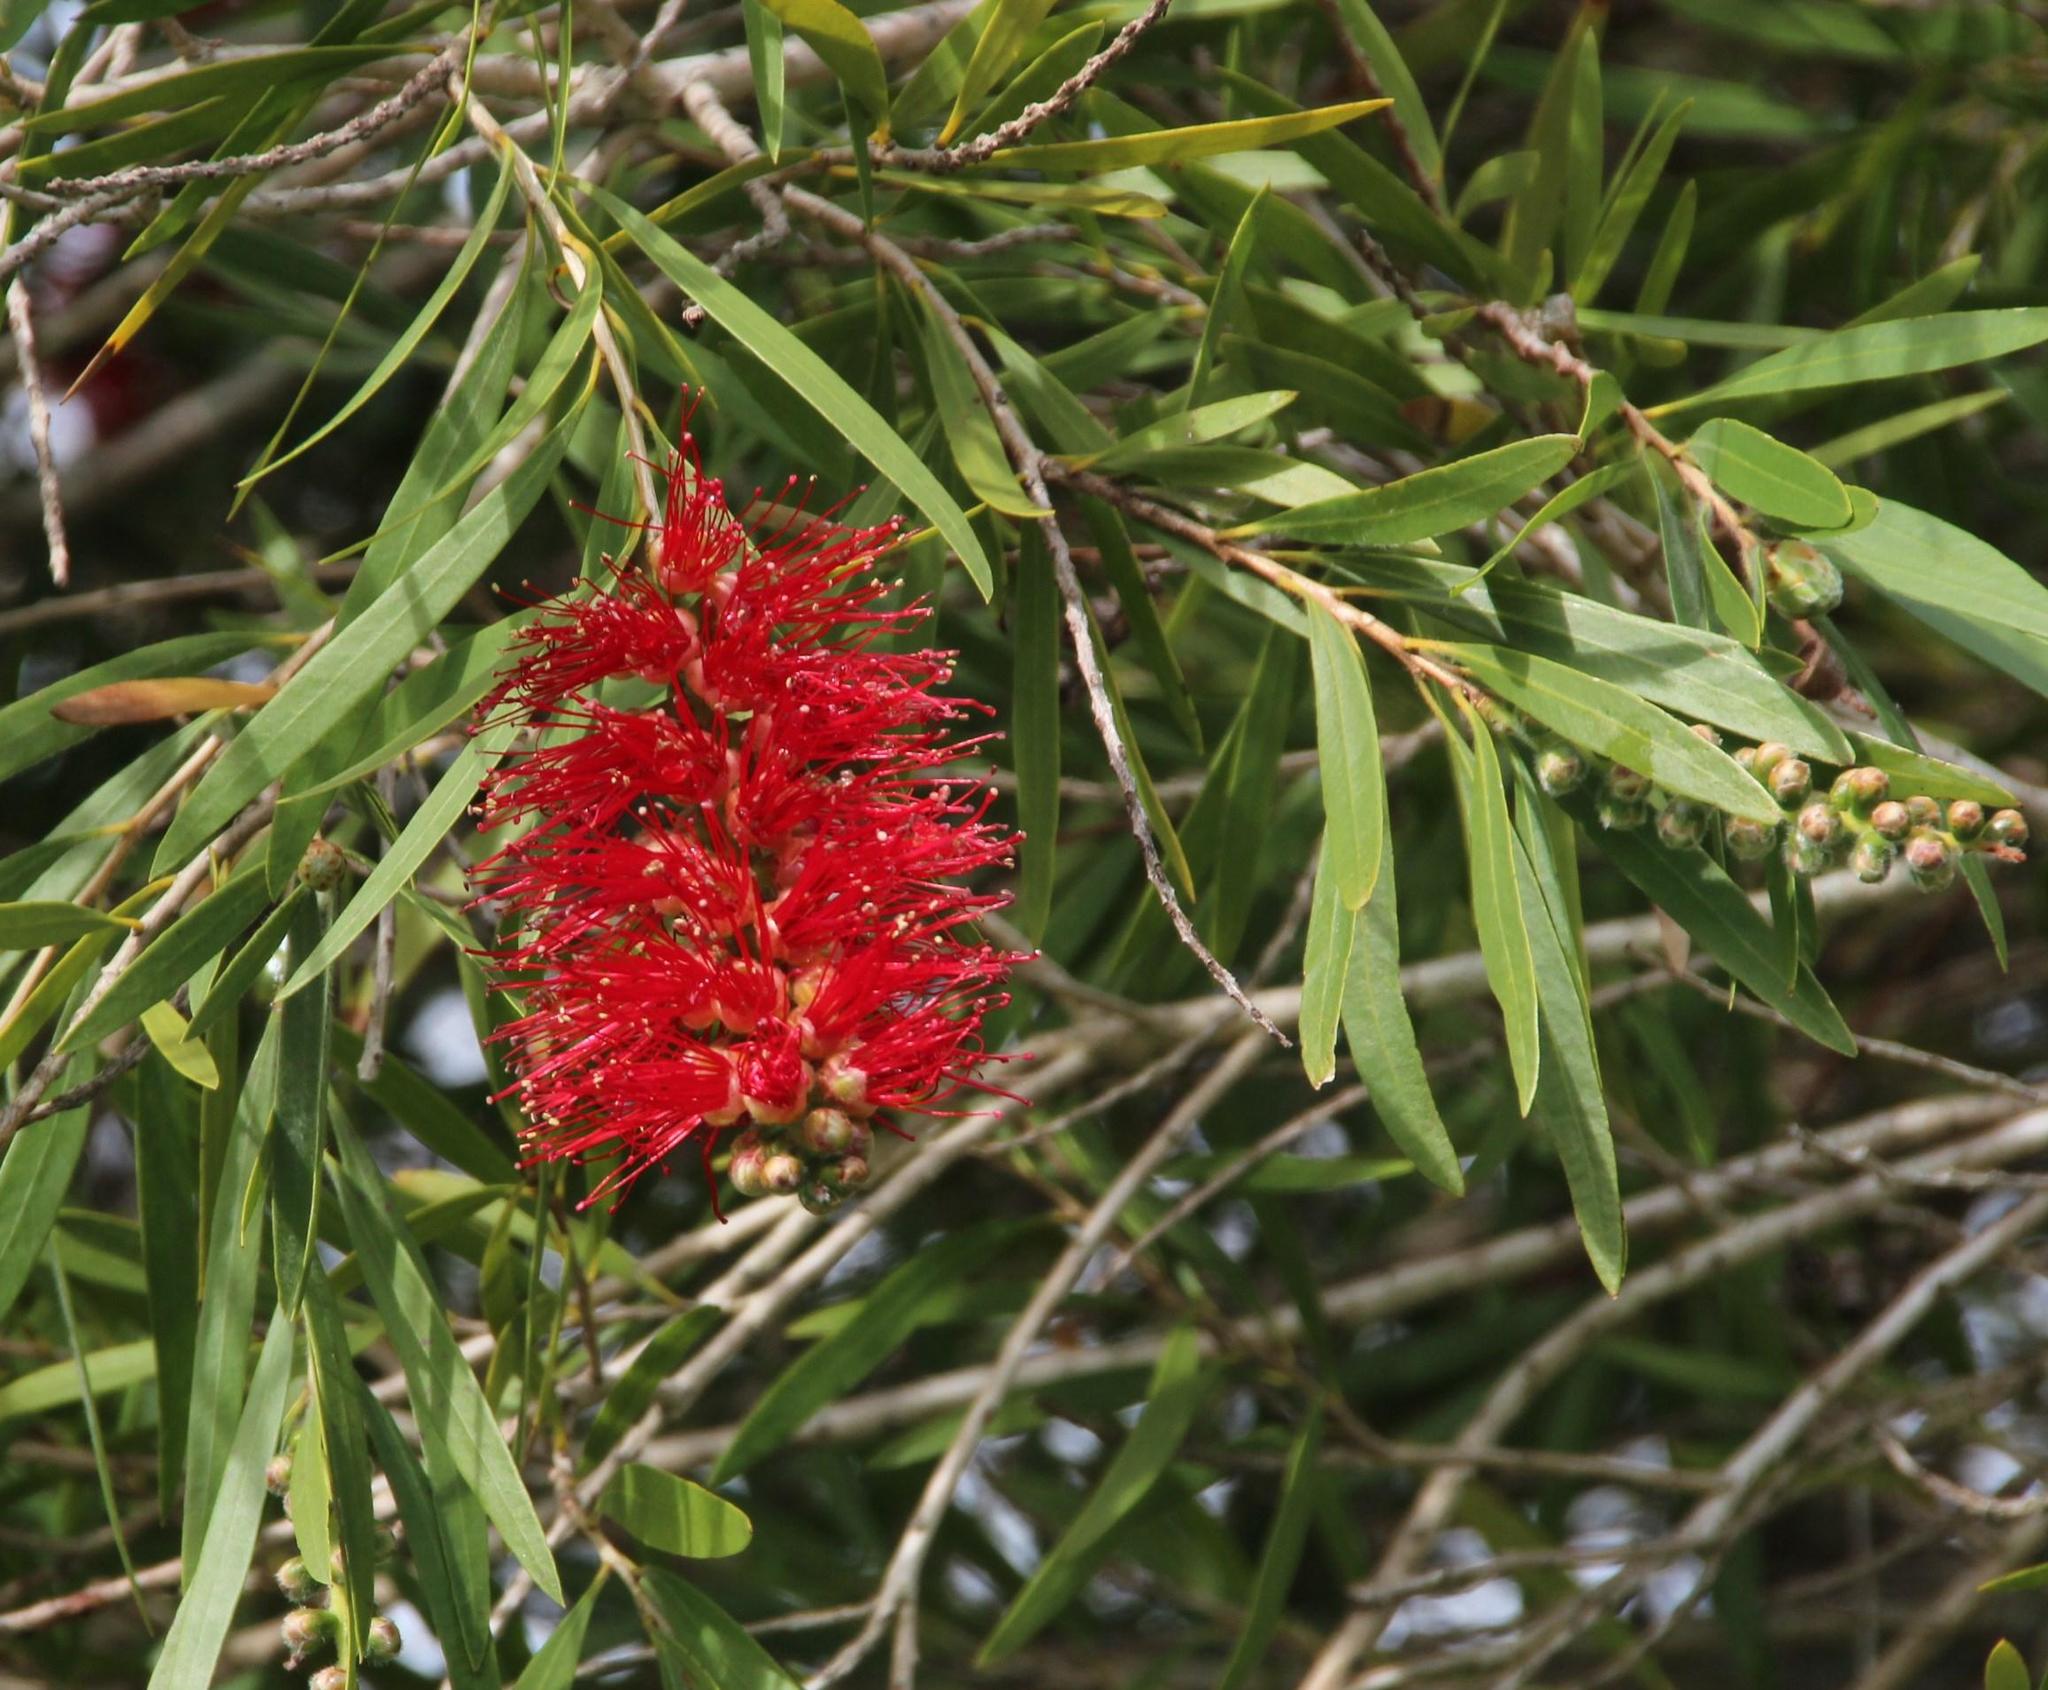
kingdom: Plantae
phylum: Tracheophyta
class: Magnoliopsida
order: Myrtales
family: Myrtaceae
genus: Callistemon
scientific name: Callistemon viminalis
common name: Drooping bottlebrush
